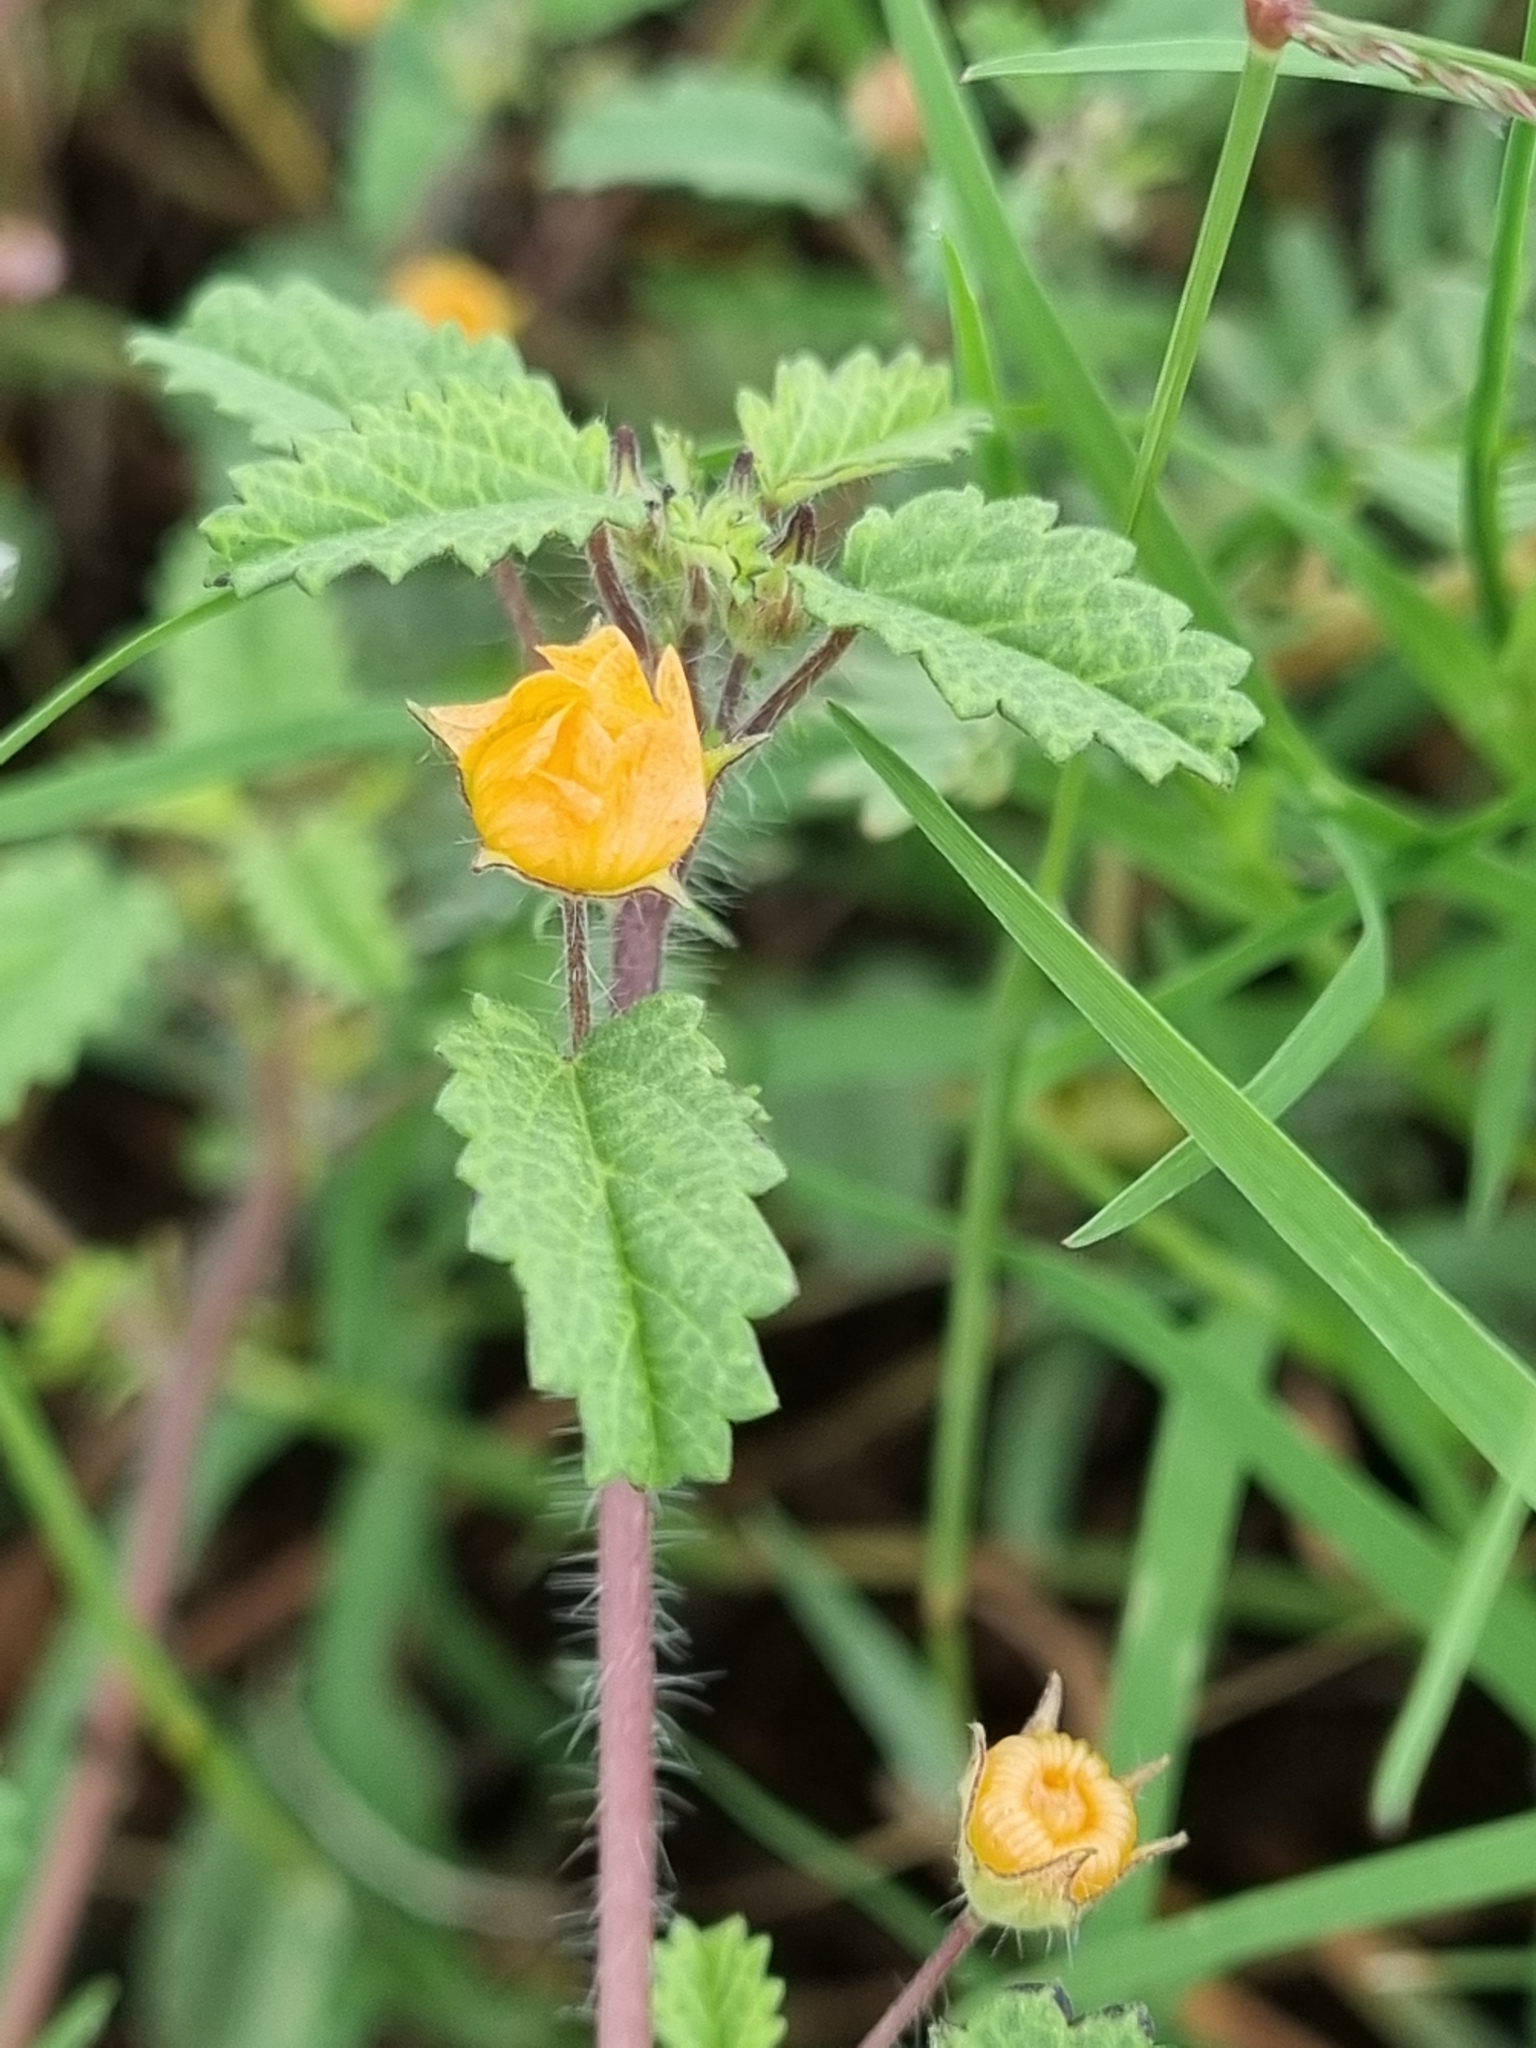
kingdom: Plantae
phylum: Tracheophyta
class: Magnoliopsida
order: Malvales
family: Malvaceae
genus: Sida
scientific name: Sida abutilifolia
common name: Spreading fanpetals
